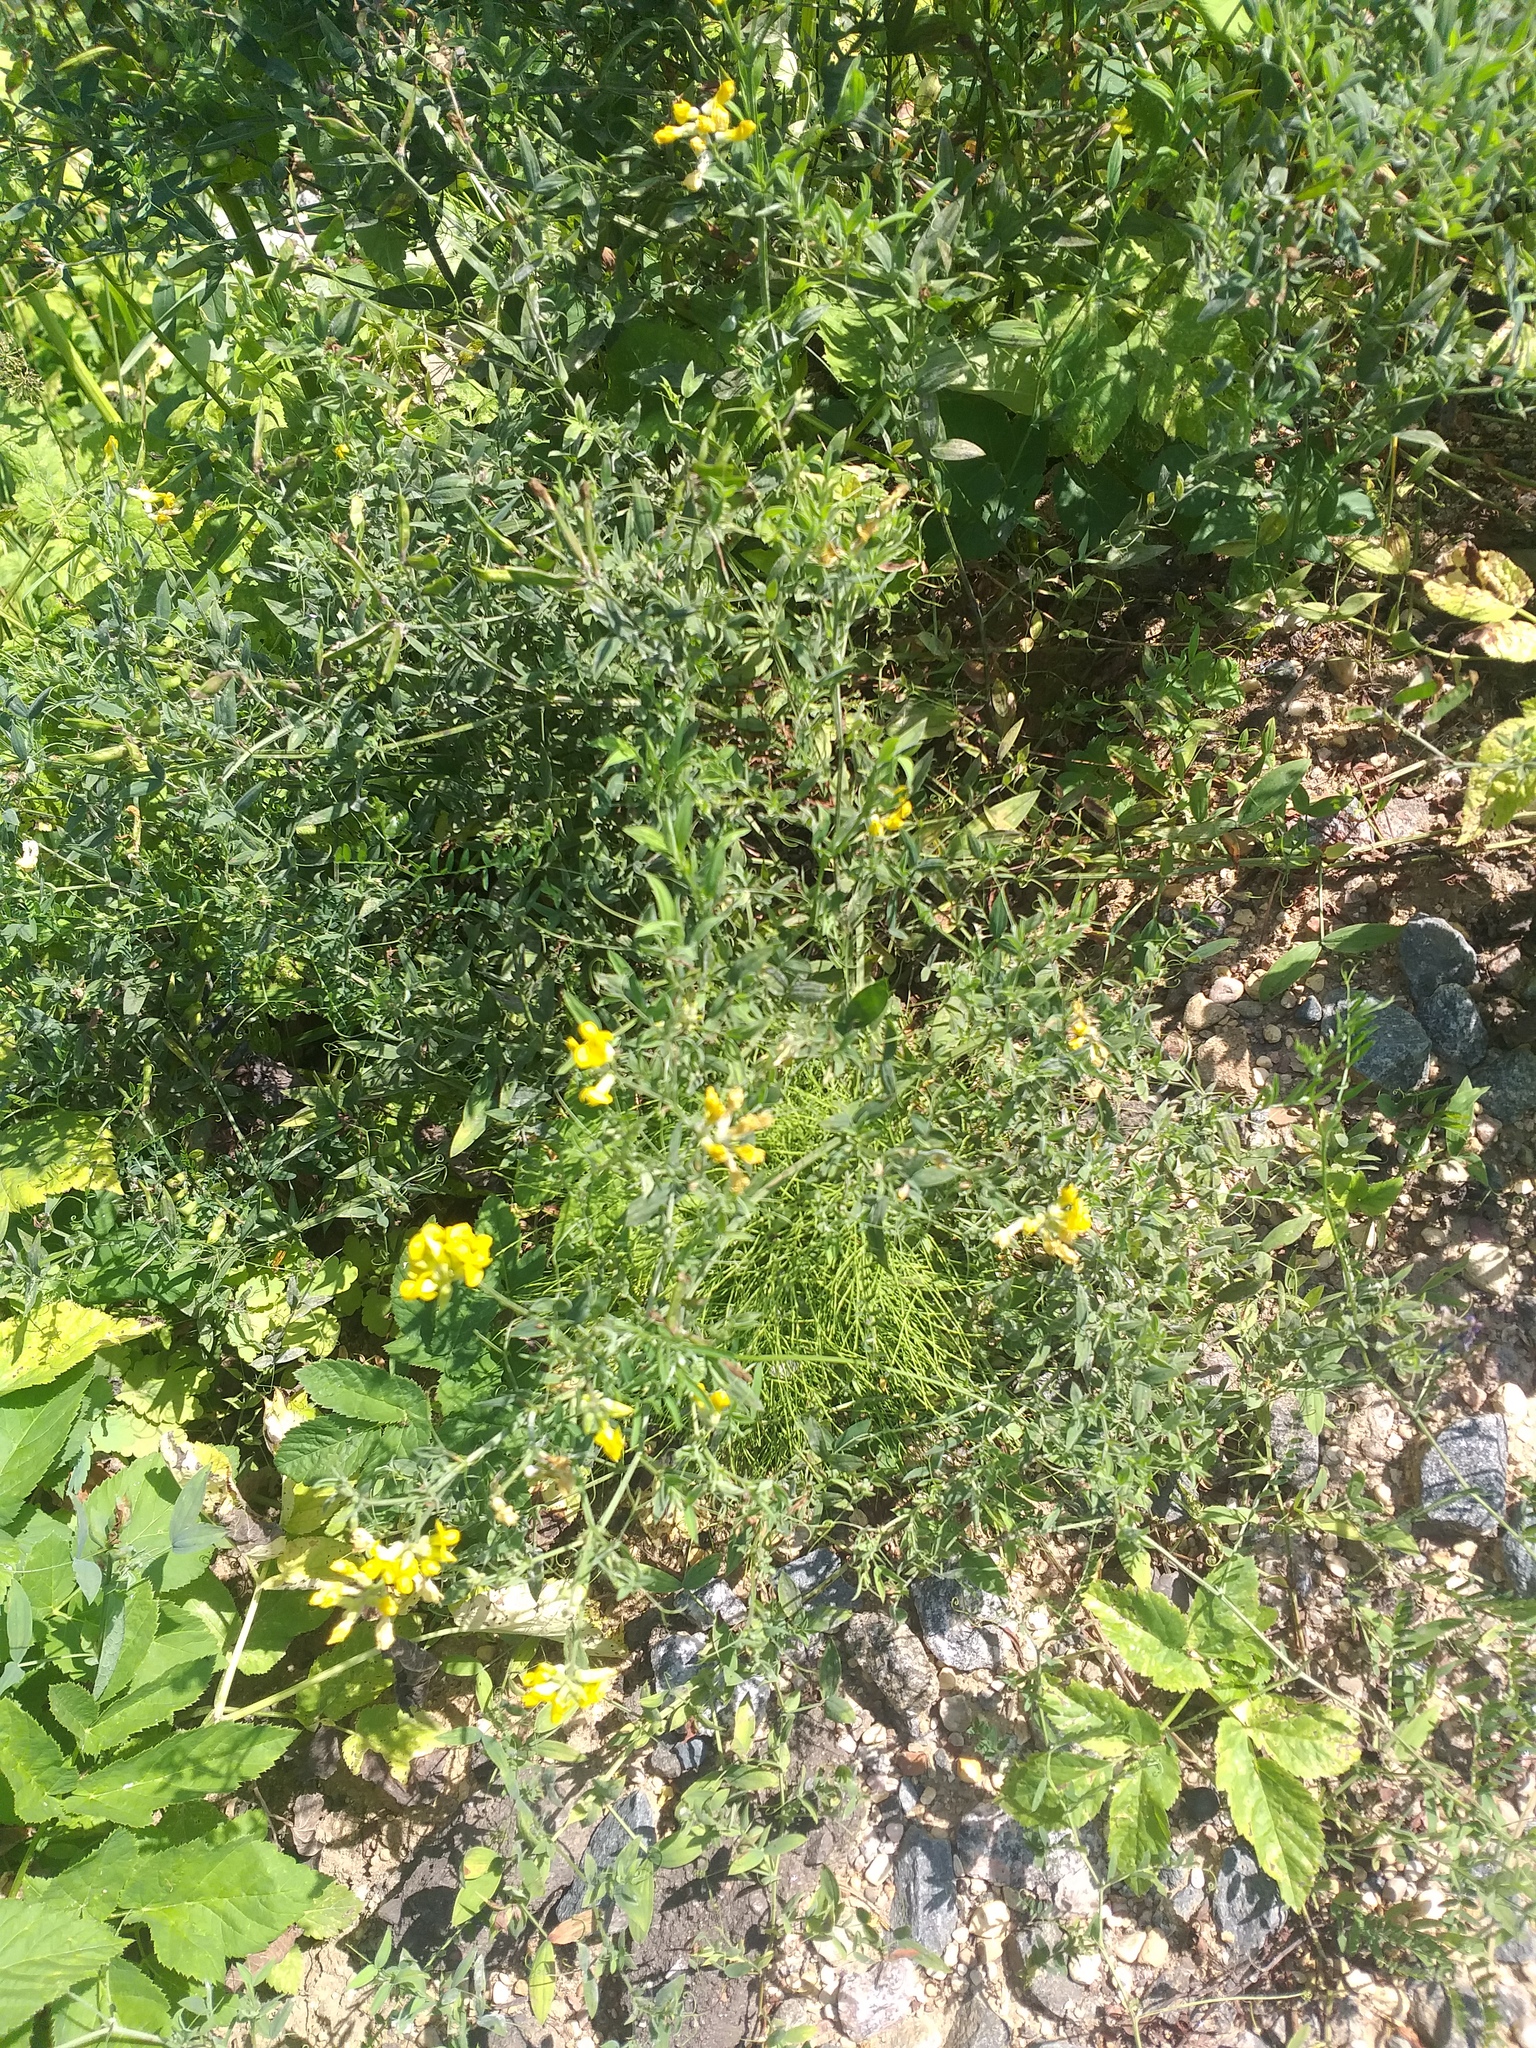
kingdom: Plantae
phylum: Tracheophyta
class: Magnoliopsida
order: Fabales
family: Fabaceae
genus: Lathyrus
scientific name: Lathyrus pratensis
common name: Meadow vetchling
